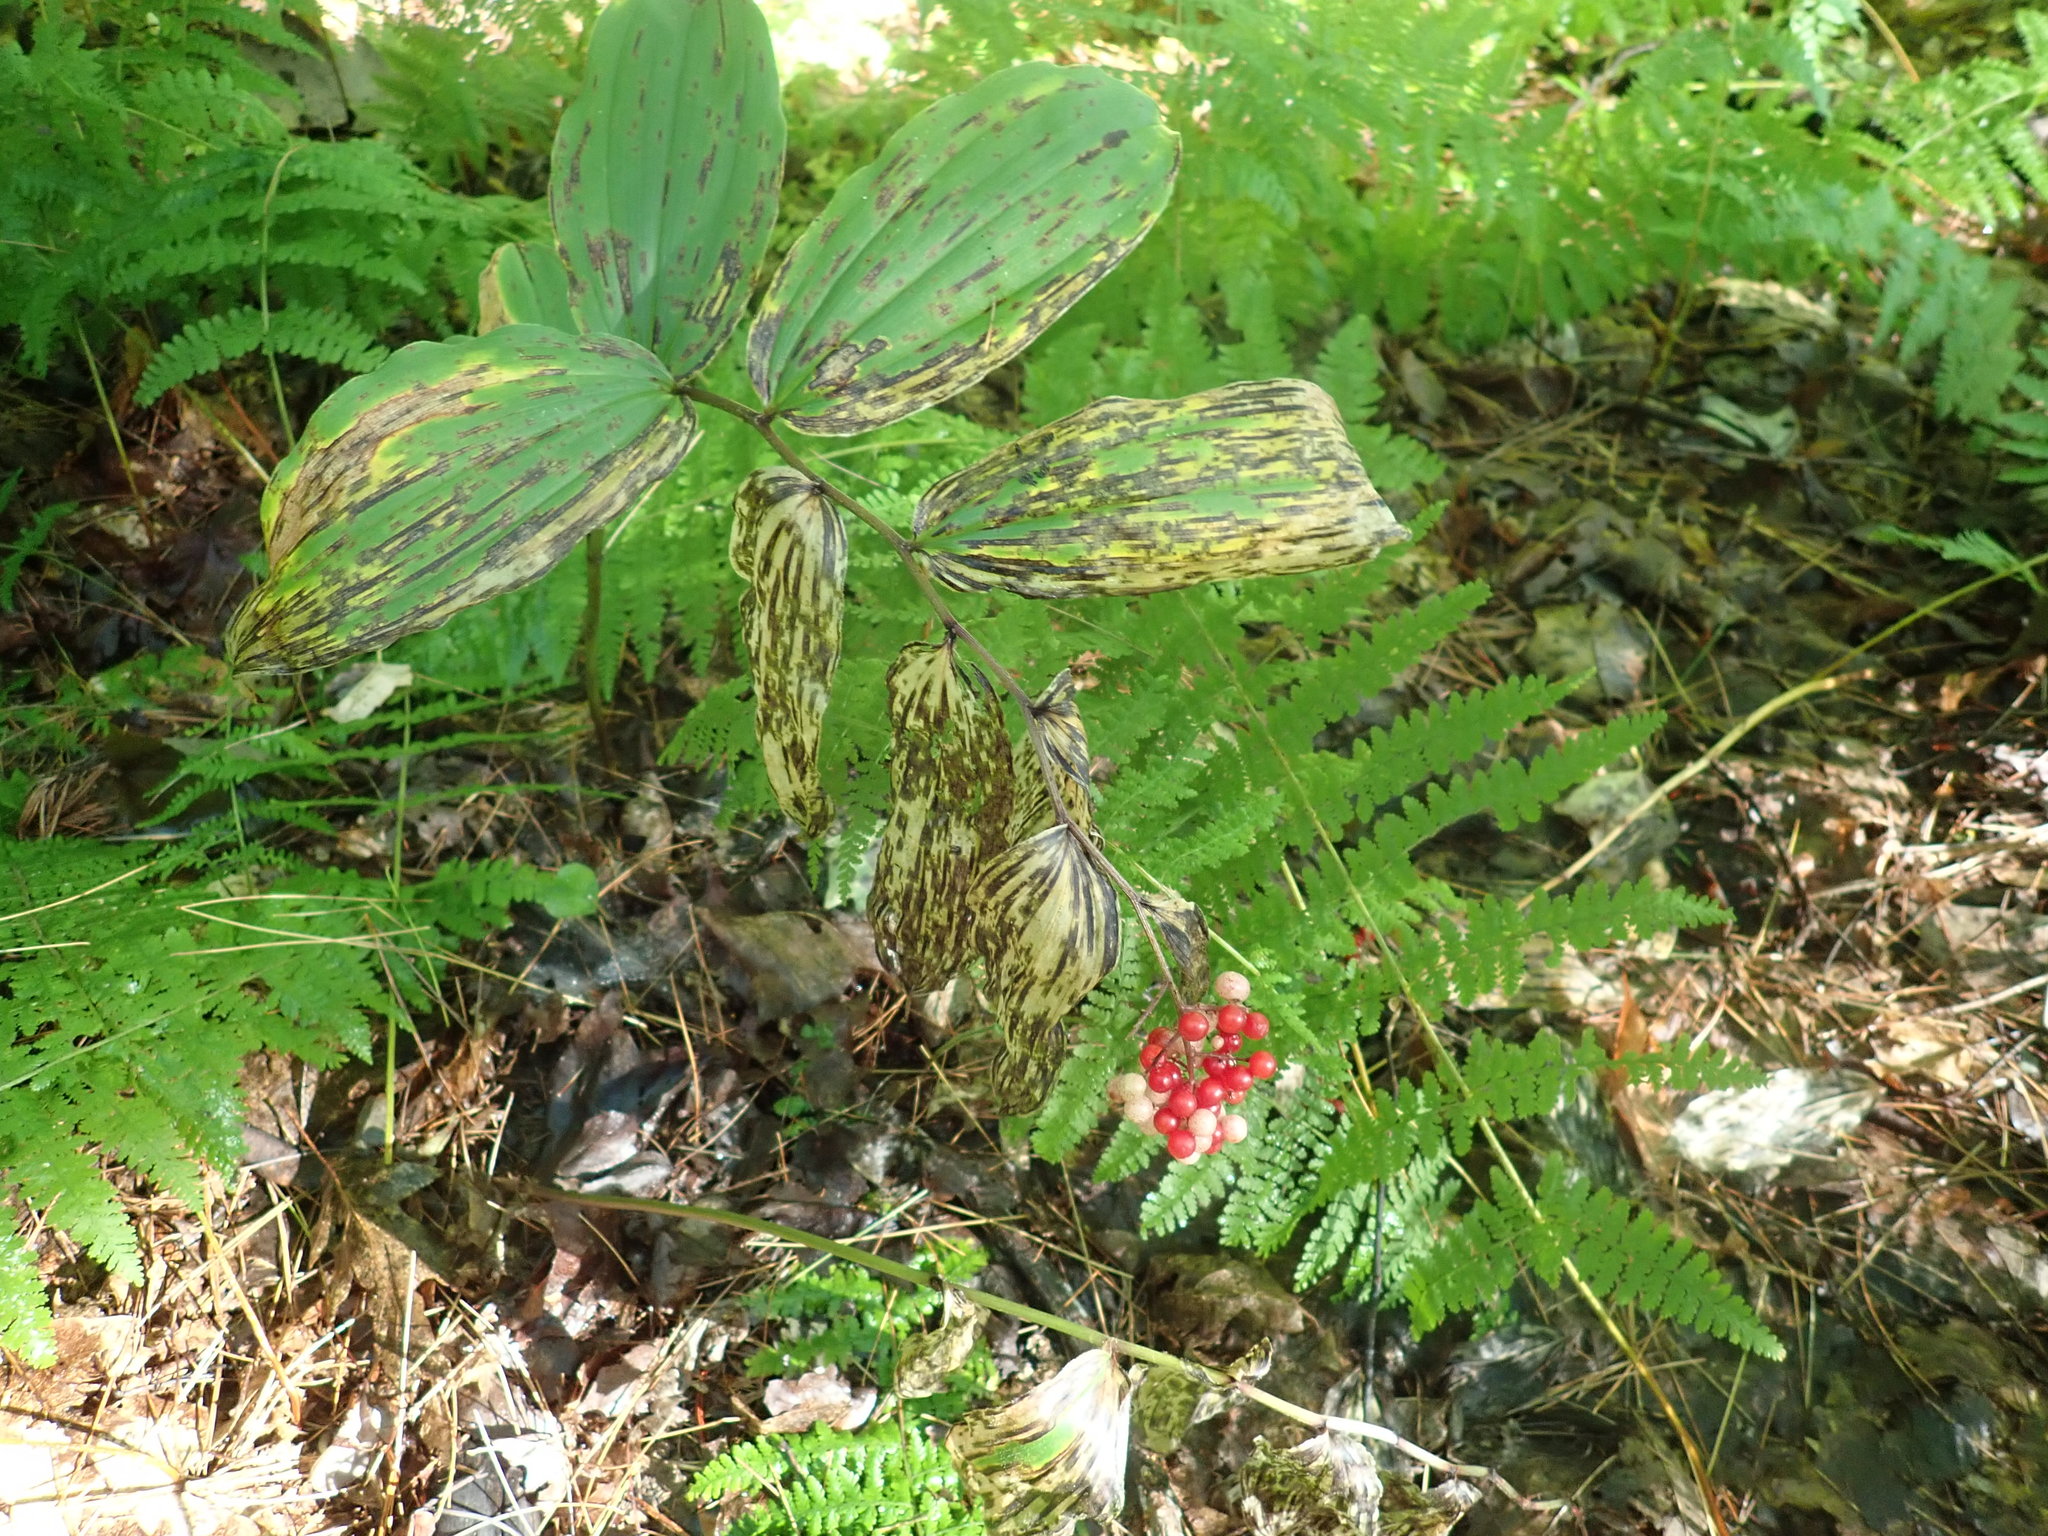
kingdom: Plantae
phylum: Tracheophyta
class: Liliopsida
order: Asparagales
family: Asparagaceae
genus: Maianthemum
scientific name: Maianthemum racemosum
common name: False spikenard
